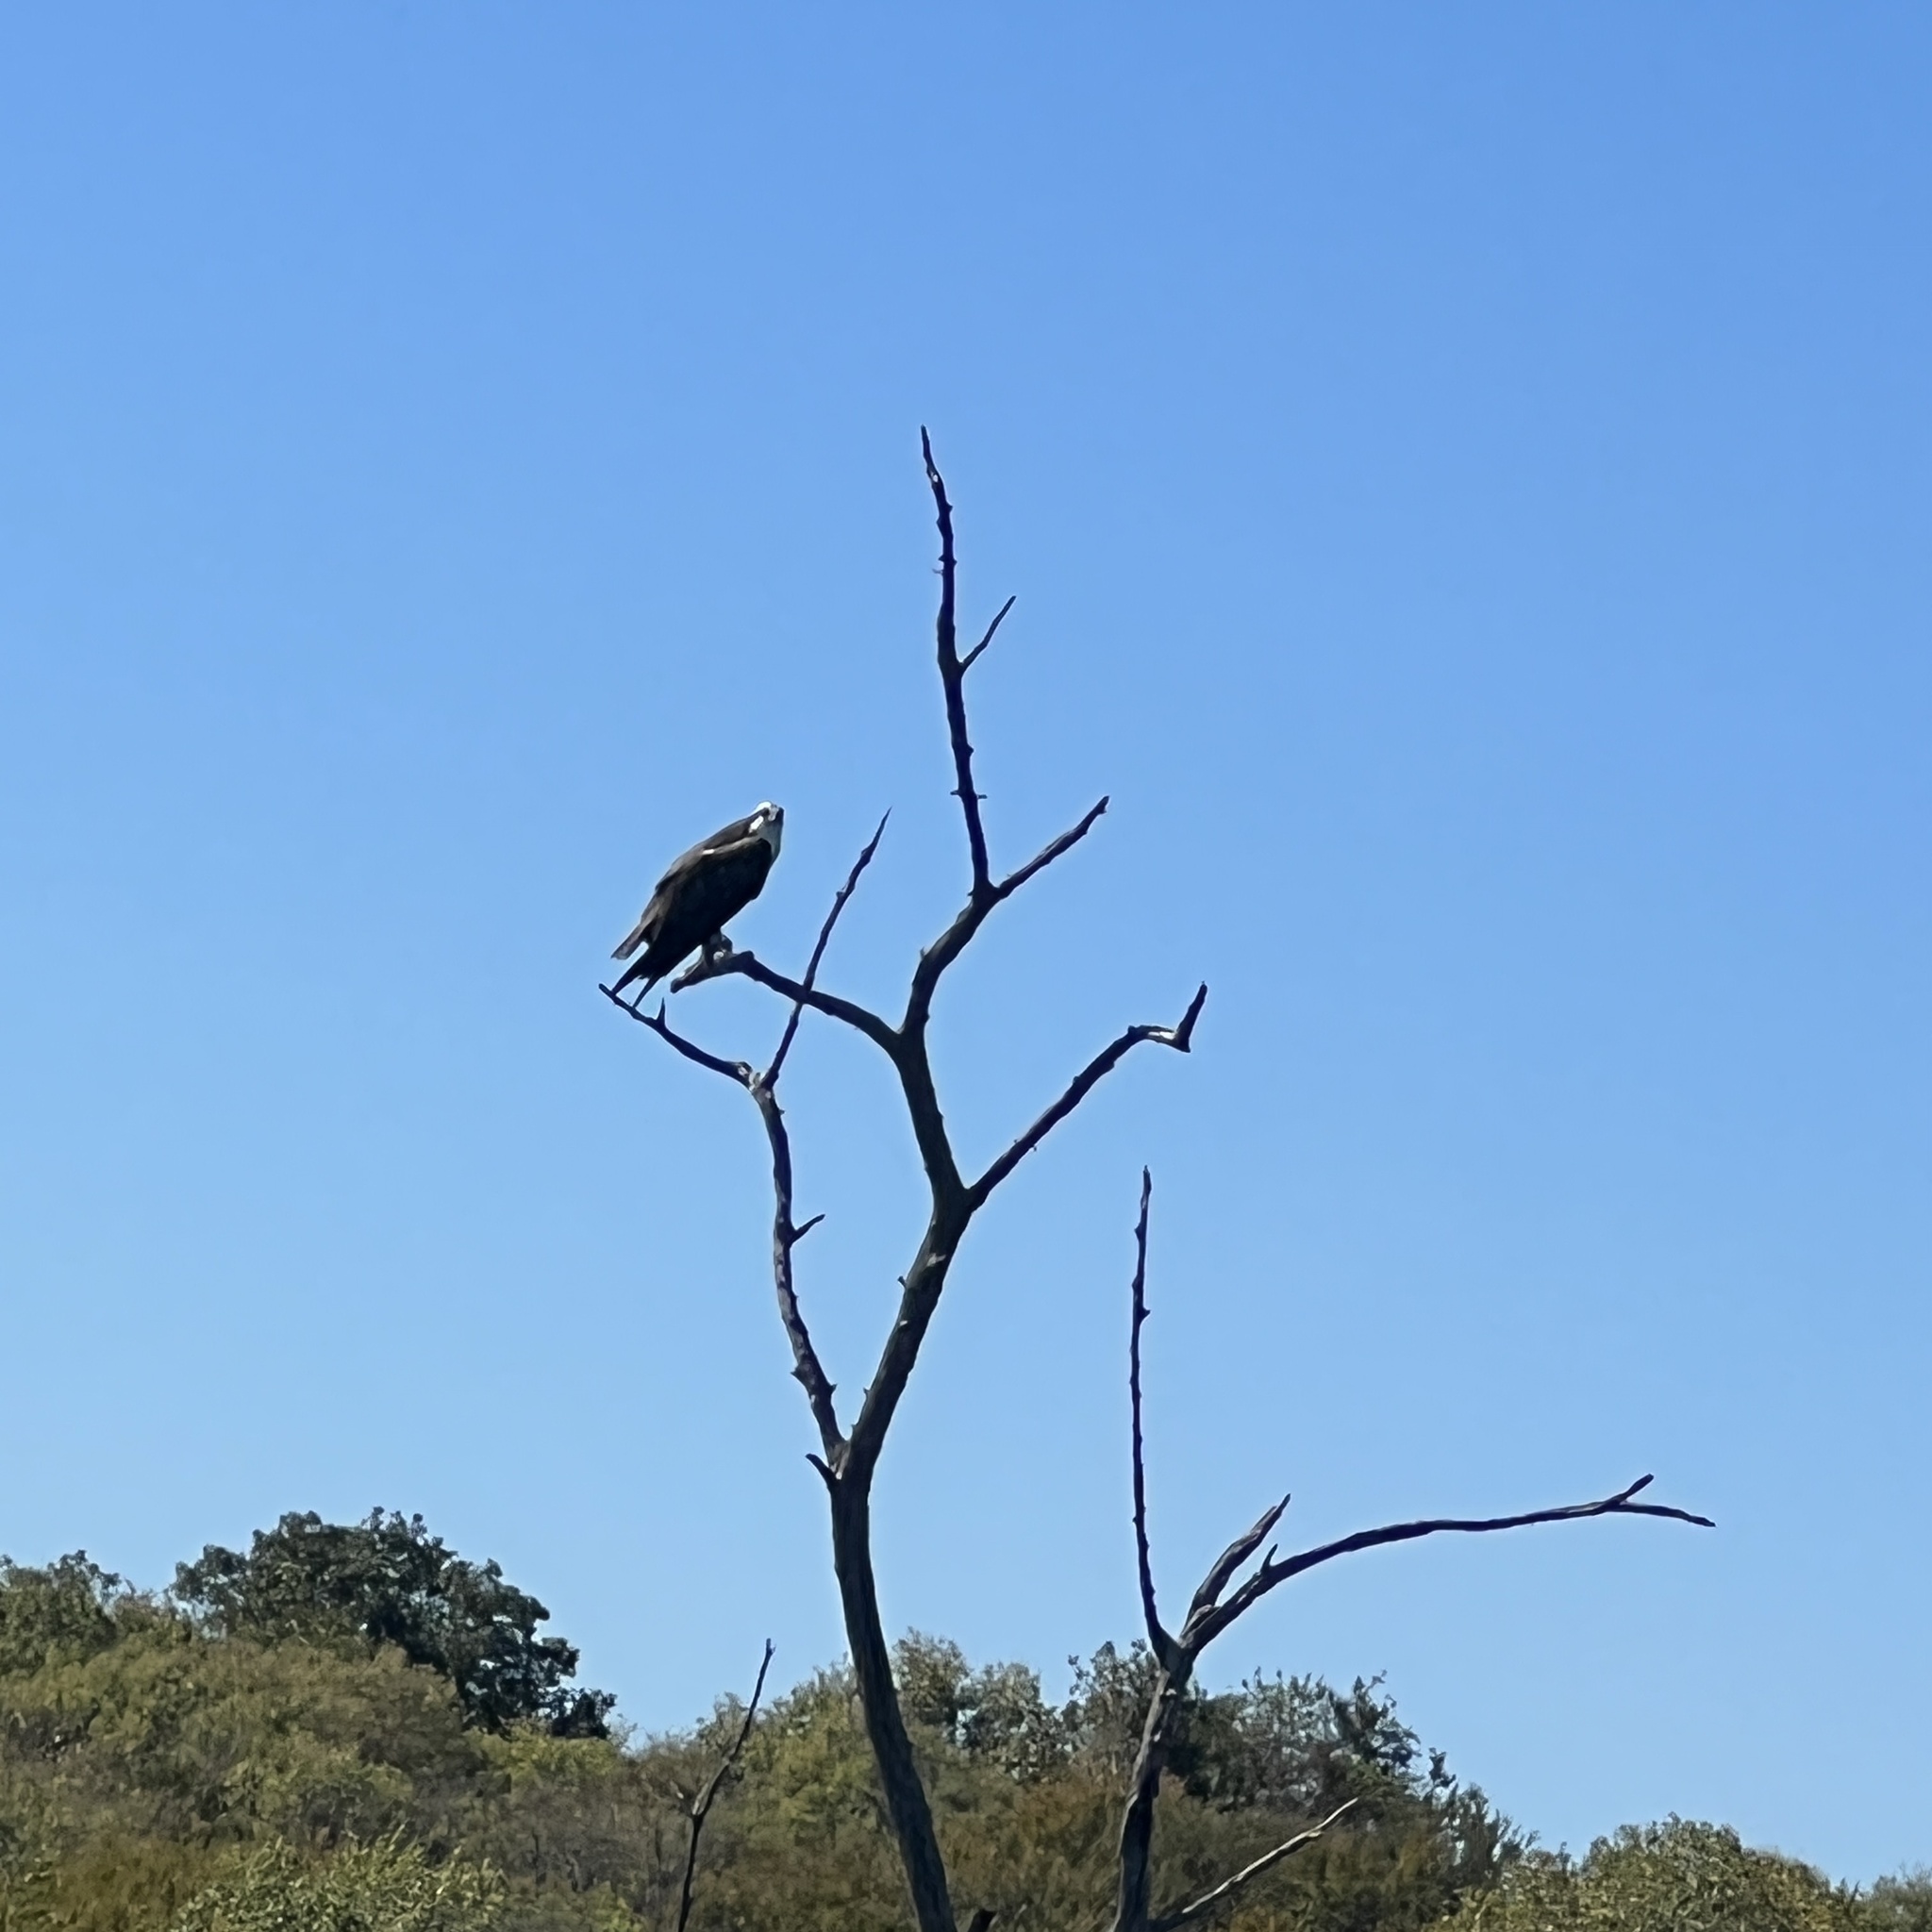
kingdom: Animalia
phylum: Chordata
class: Aves
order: Accipitriformes
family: Pandionidae
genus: Pandion
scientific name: Pandion haliaetus
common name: Osprey
